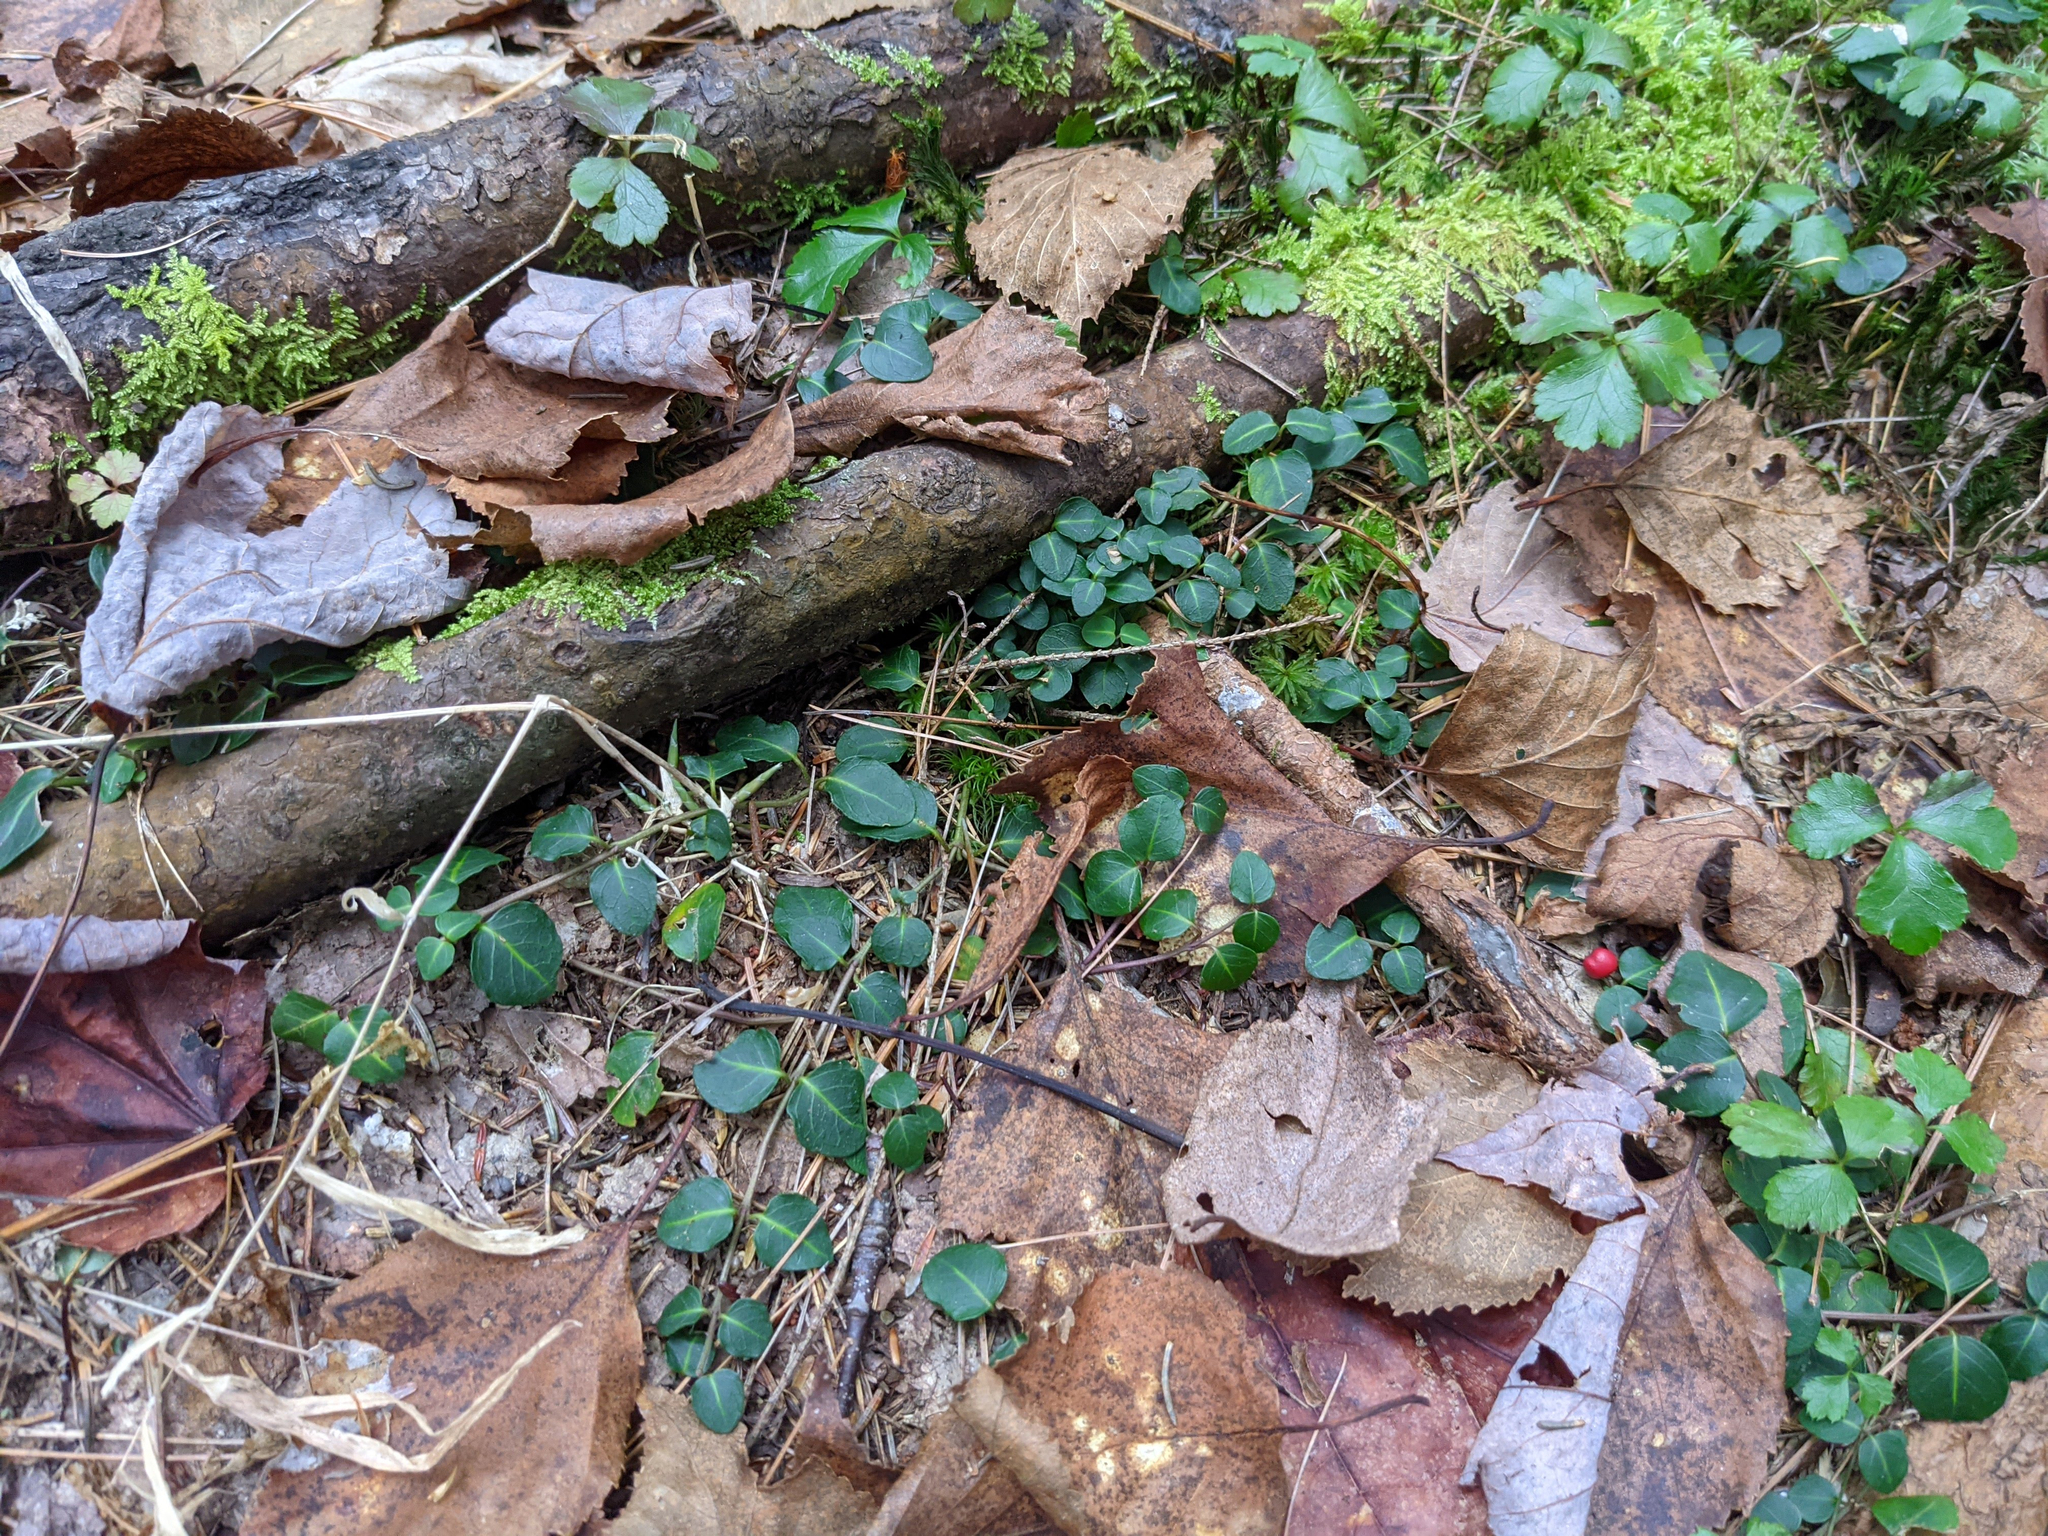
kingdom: Plantae
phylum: Tracheophyta
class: Magnoliopsida
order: Gentianales
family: Rubiaceae
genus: Mitchella
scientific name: Mitchella repens
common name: Partridge-berry
